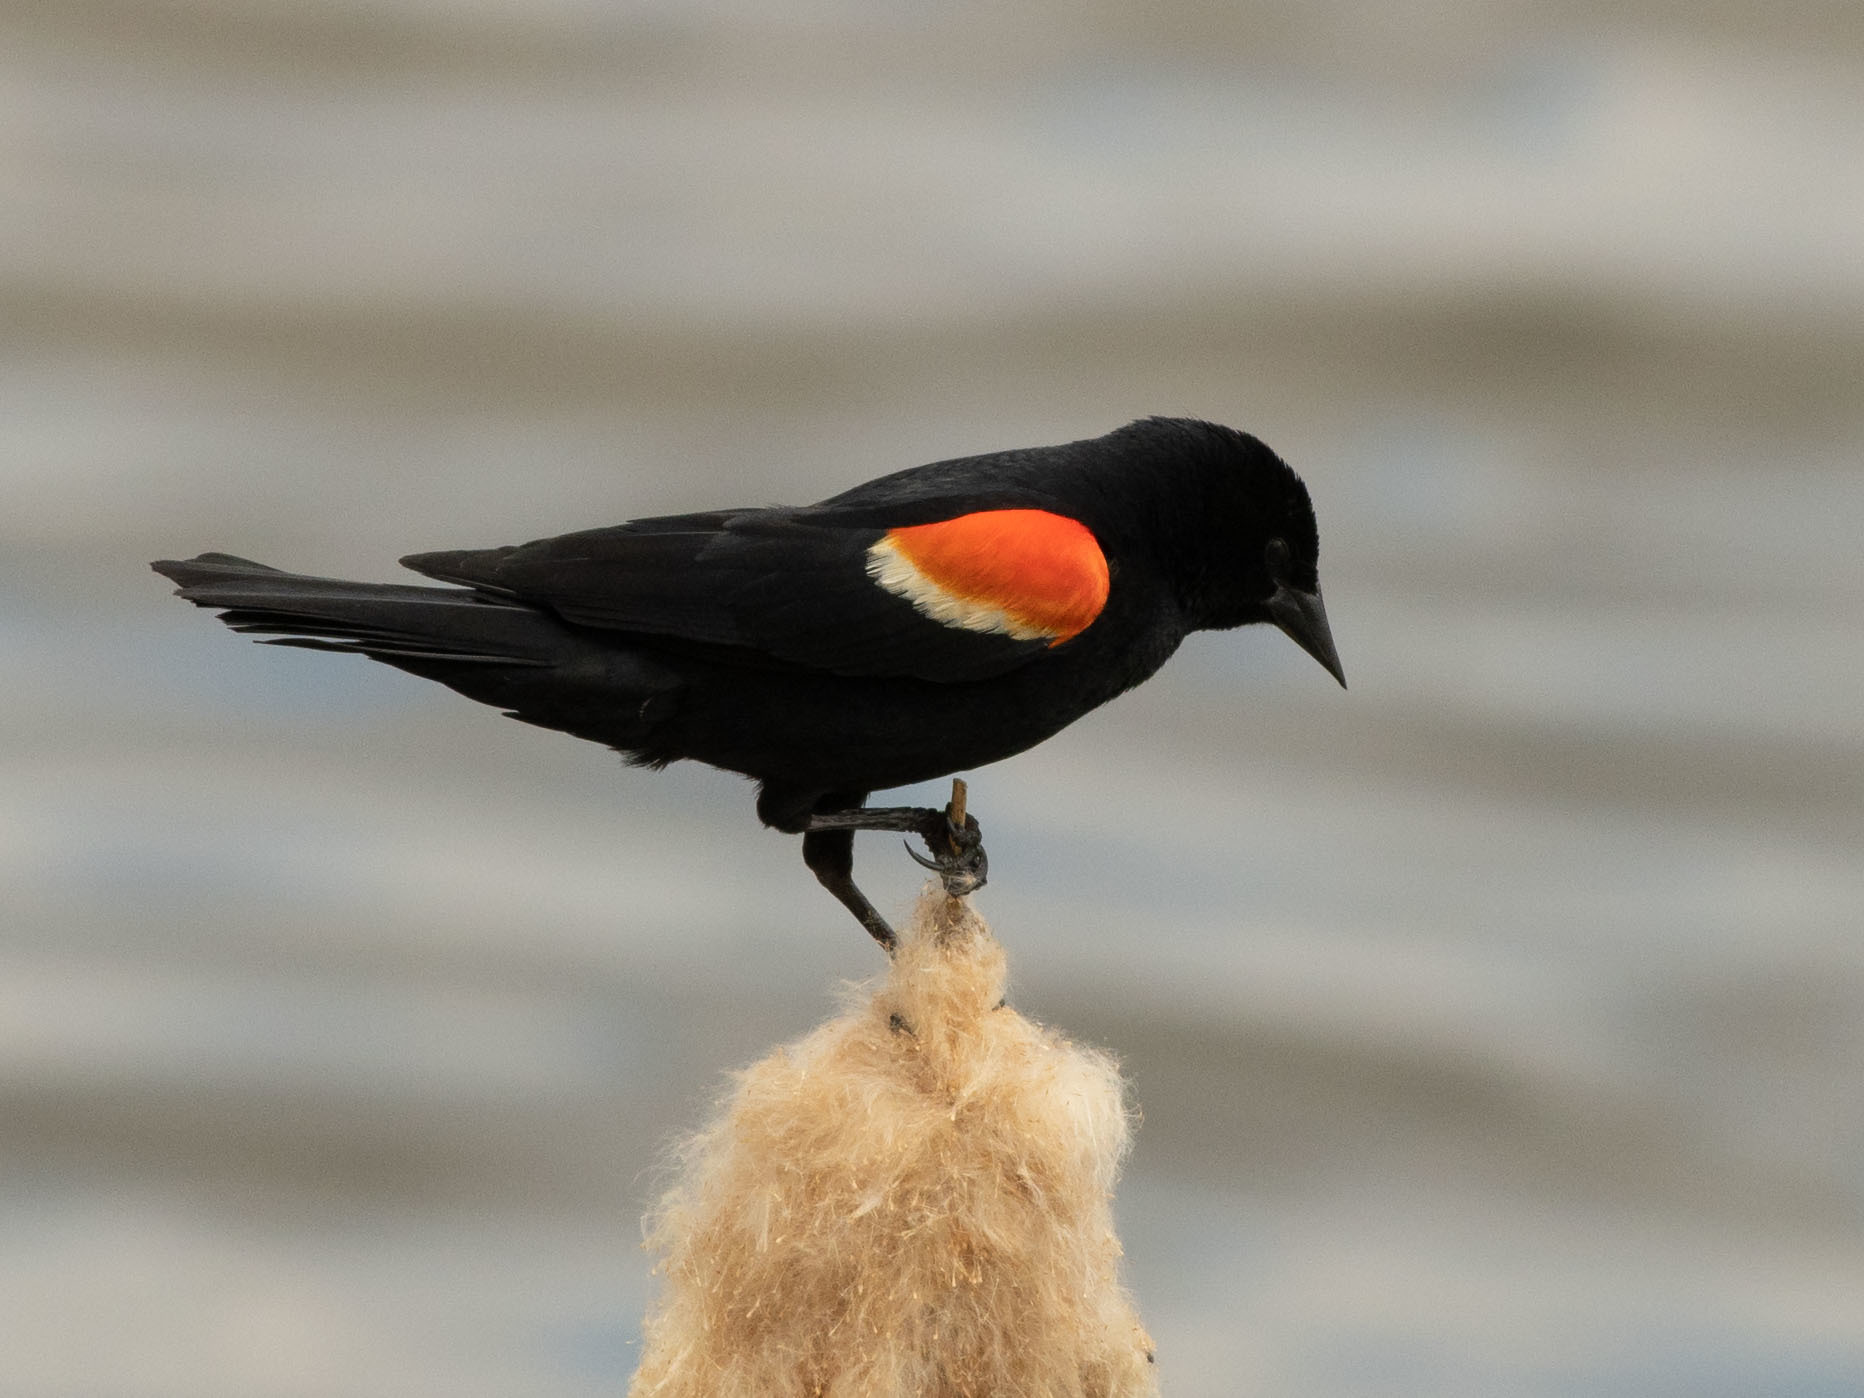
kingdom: Animalia
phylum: Chordata
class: Aves
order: Passeriformes
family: Icteridae
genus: Agelaius
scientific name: Agelaius phoeniceus
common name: Red-winged blackbird
